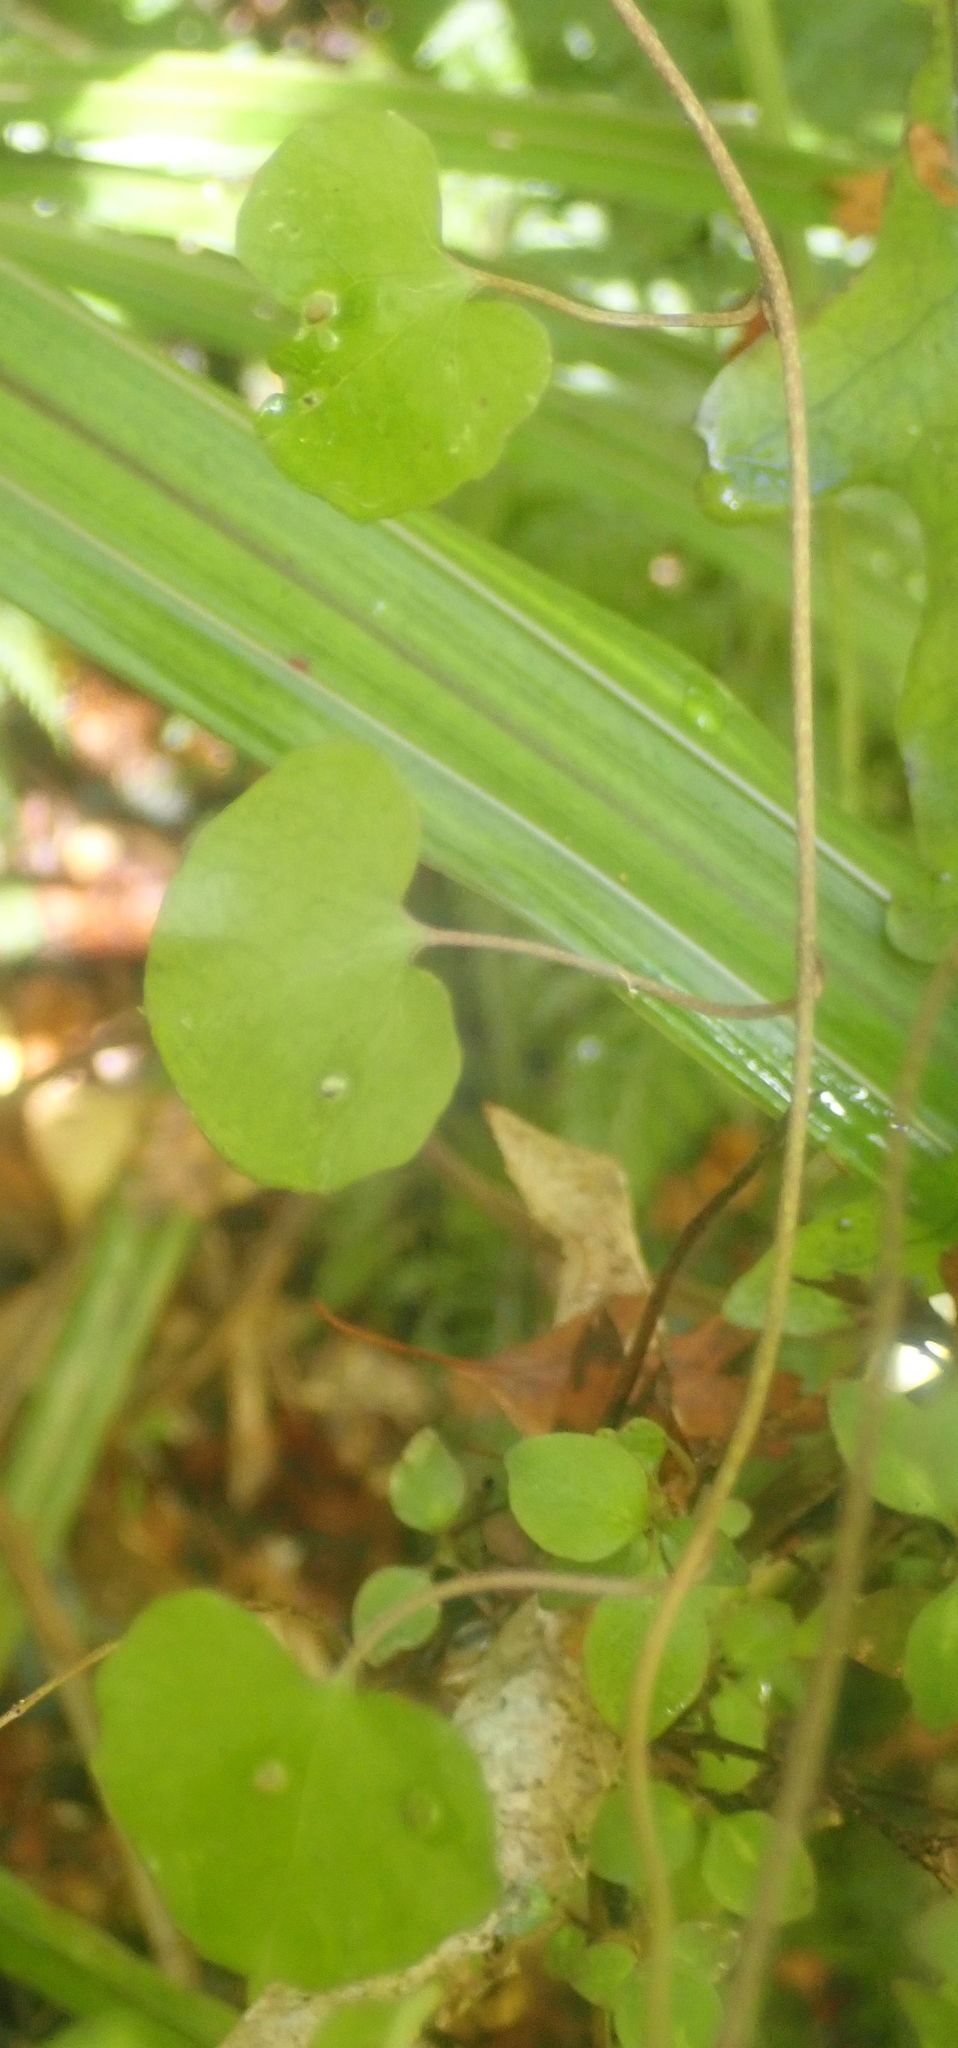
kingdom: Plantae
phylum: Tracheophyta
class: Magnoliopsida
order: Solanales
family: Convolvulaceae
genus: Calystegia
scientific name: Calystegia tuguriorum
